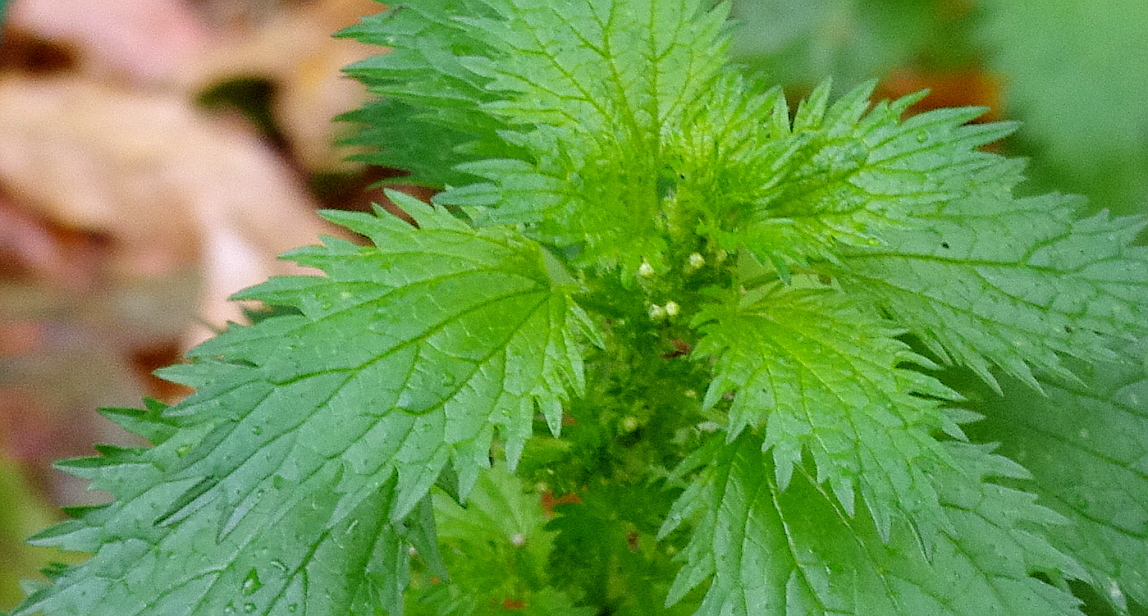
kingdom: Plantae
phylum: Tracheophyta
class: Magnoliopsida
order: Rosales
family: Urticaceae
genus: Urtica
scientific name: Urtica urens
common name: Dwarf nettle
